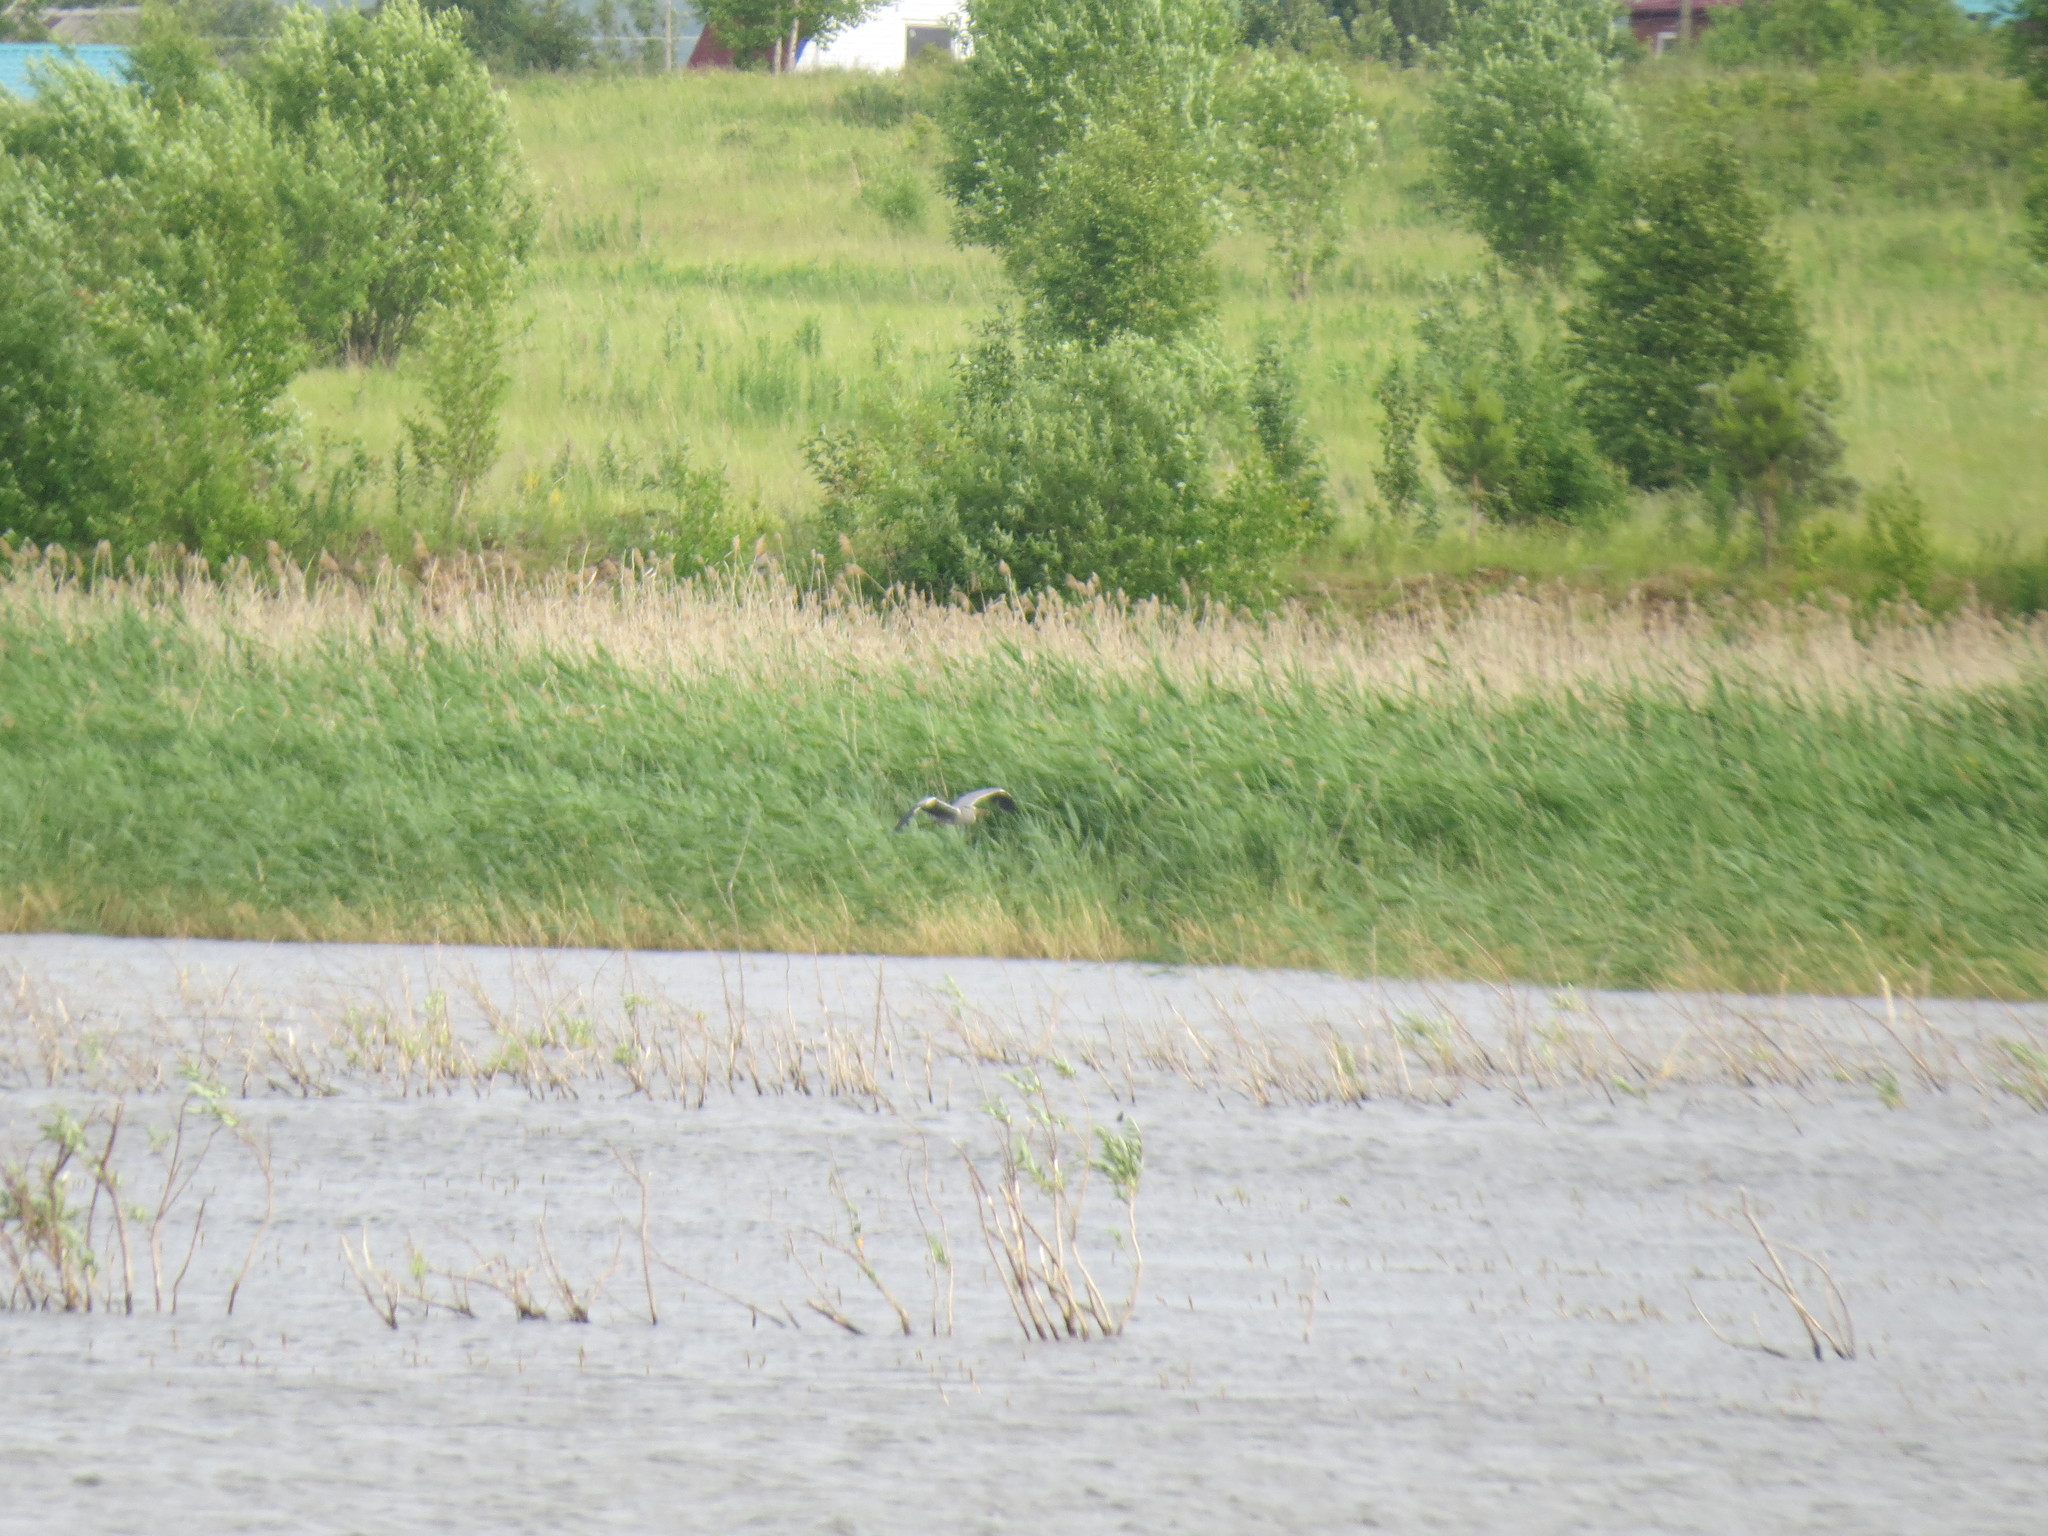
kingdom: Animalia
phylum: Chordata
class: Aves
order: Pelecaniformes
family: Ardeidae
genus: Ardea
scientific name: Ardea cinerea
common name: Grey heron
